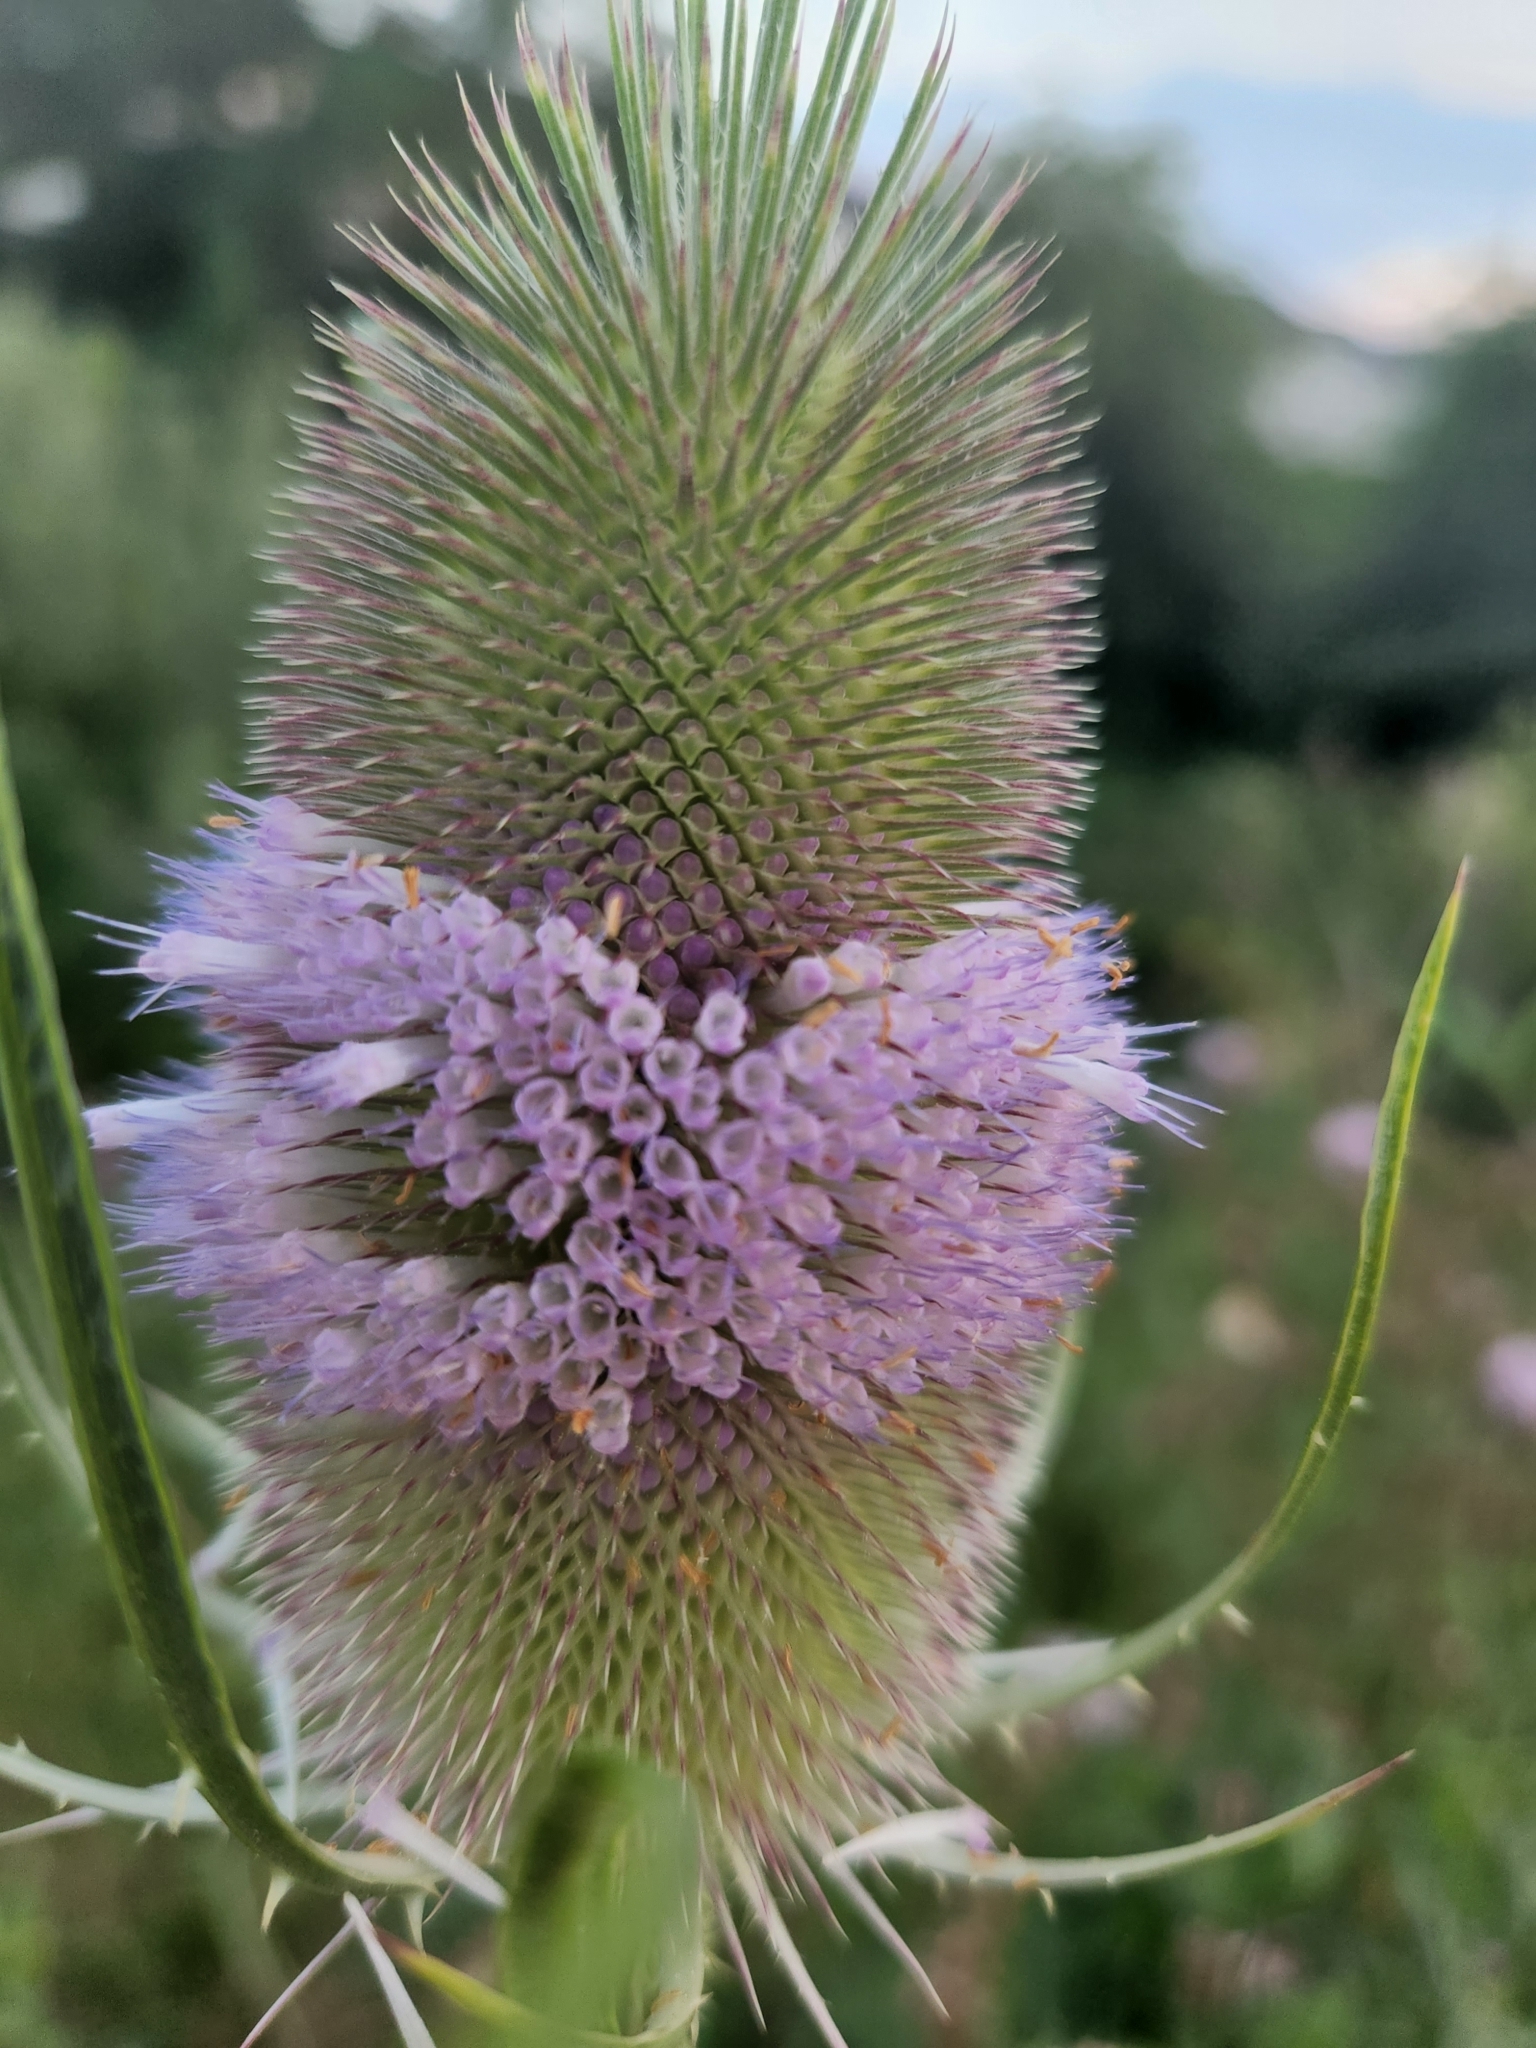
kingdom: Plantae
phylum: Tracheophyta
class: Magnoliopsida
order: Dipsacales
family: Caprifoliaceae
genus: Dipsacus
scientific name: Dipsacus fullonum
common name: Teasel
